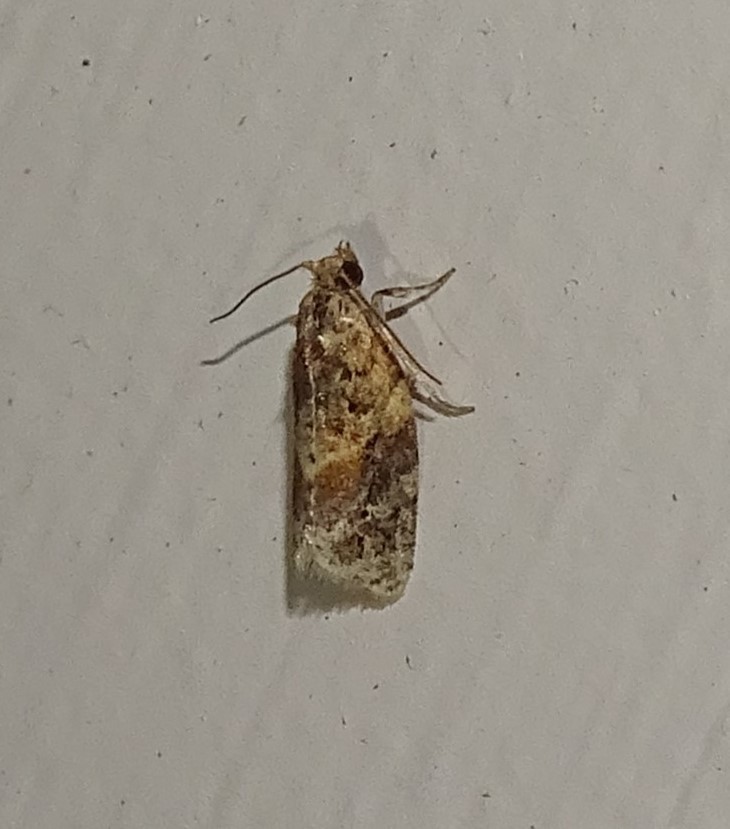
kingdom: Animalia
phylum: Arthropoda
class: Insecta
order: Lepidoptera
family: Tortricidae
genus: Argyrotaenia
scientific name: Argyrotaenia velutinana
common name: Red-banded leafroller moth
